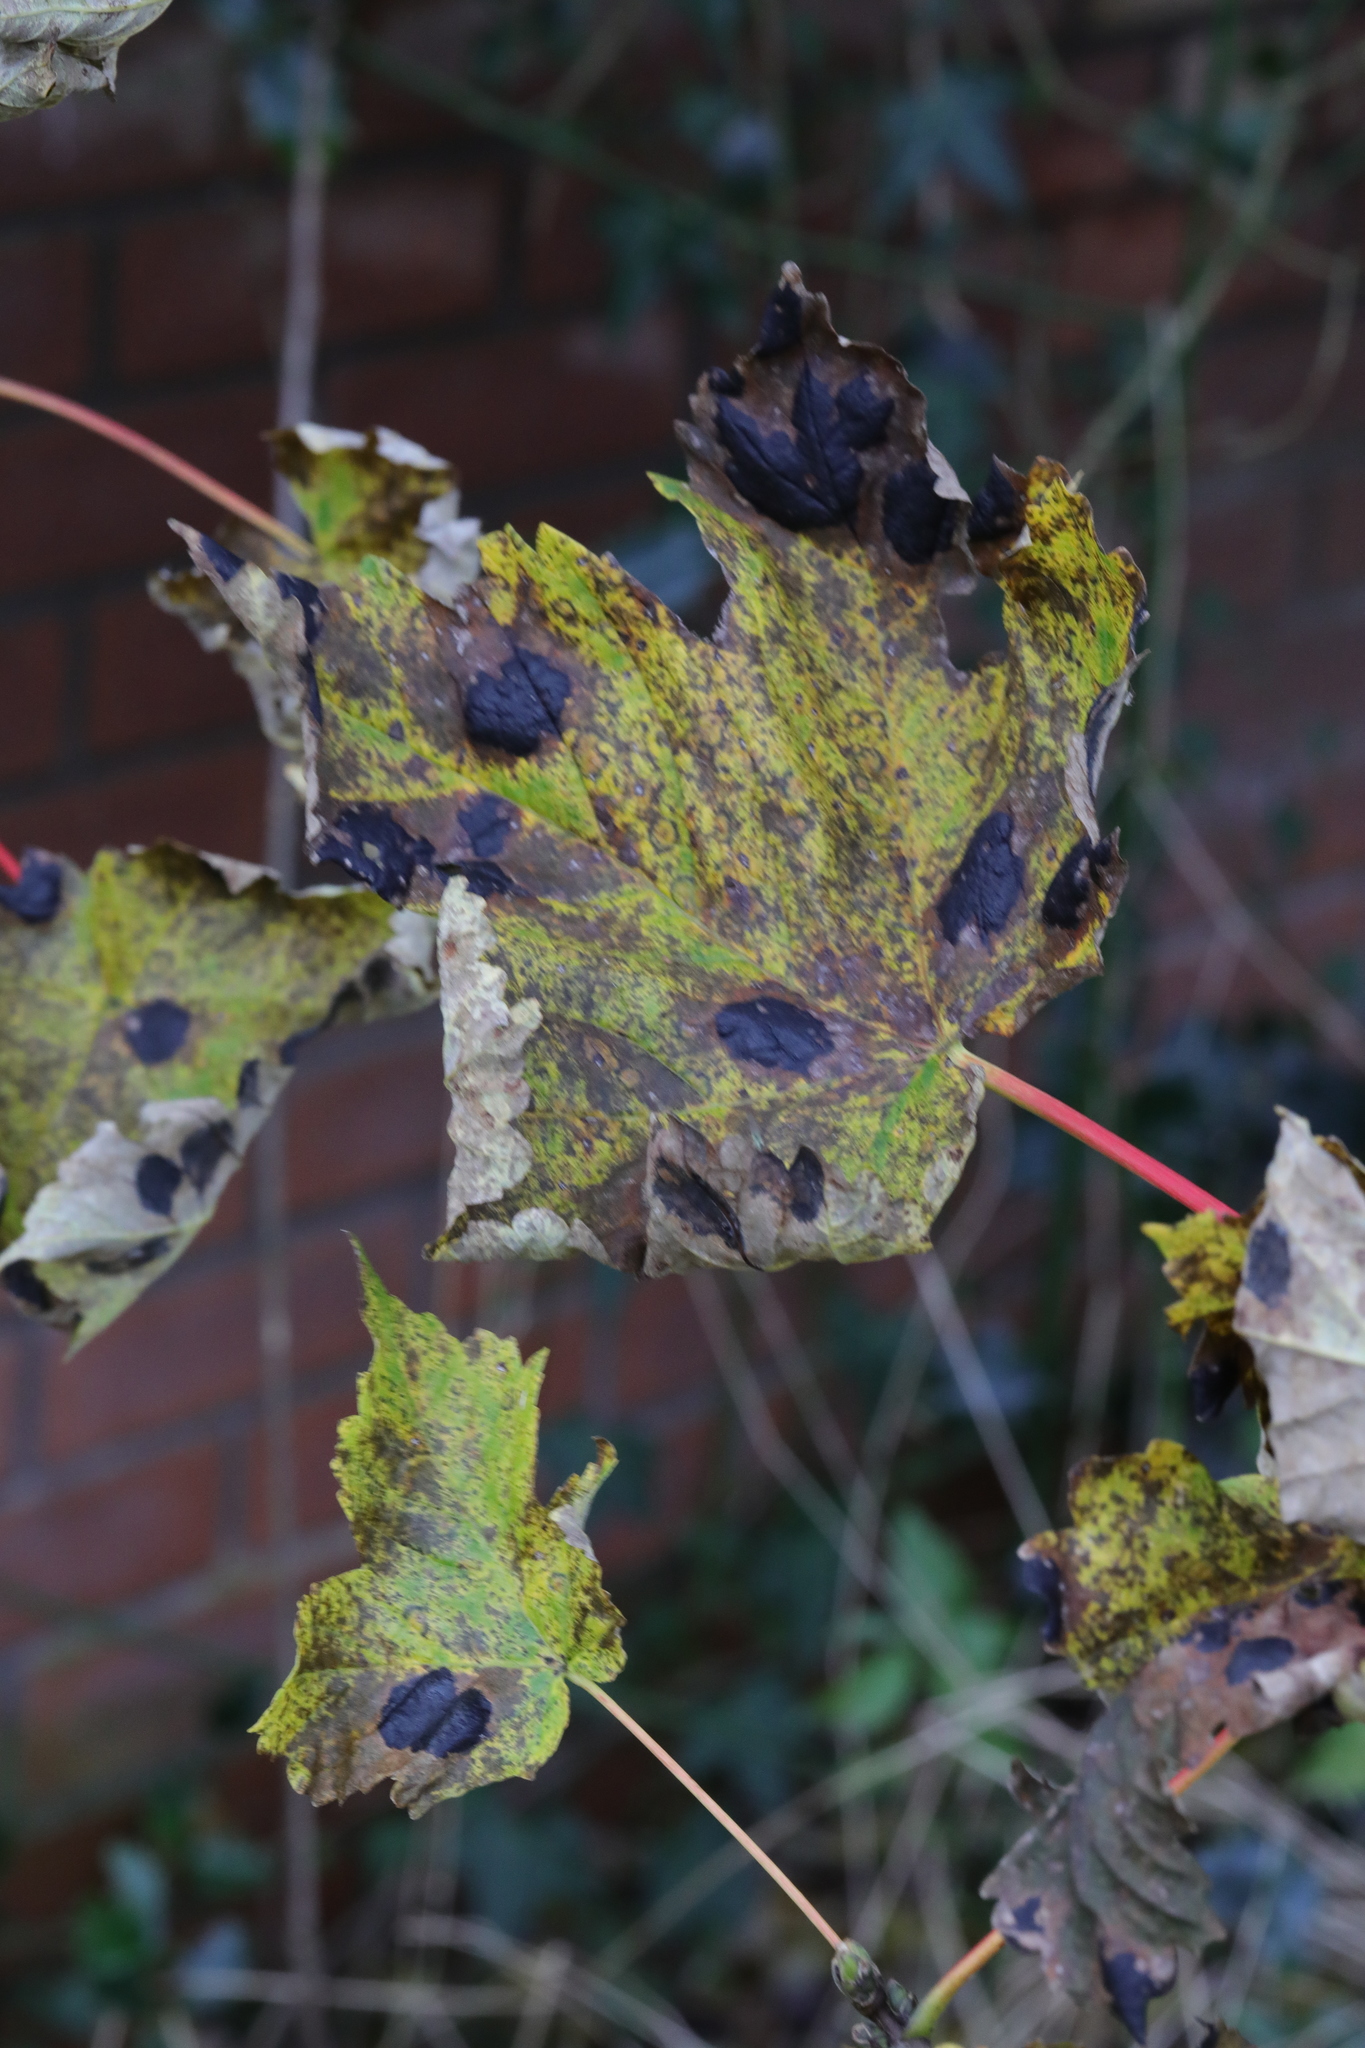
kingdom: Fungi
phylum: Ascomycota
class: Leotiomycetes
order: Rhytismatales
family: Rhytismataceae
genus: Rhytisma
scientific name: Rhytisma acerinum
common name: European tar spot
